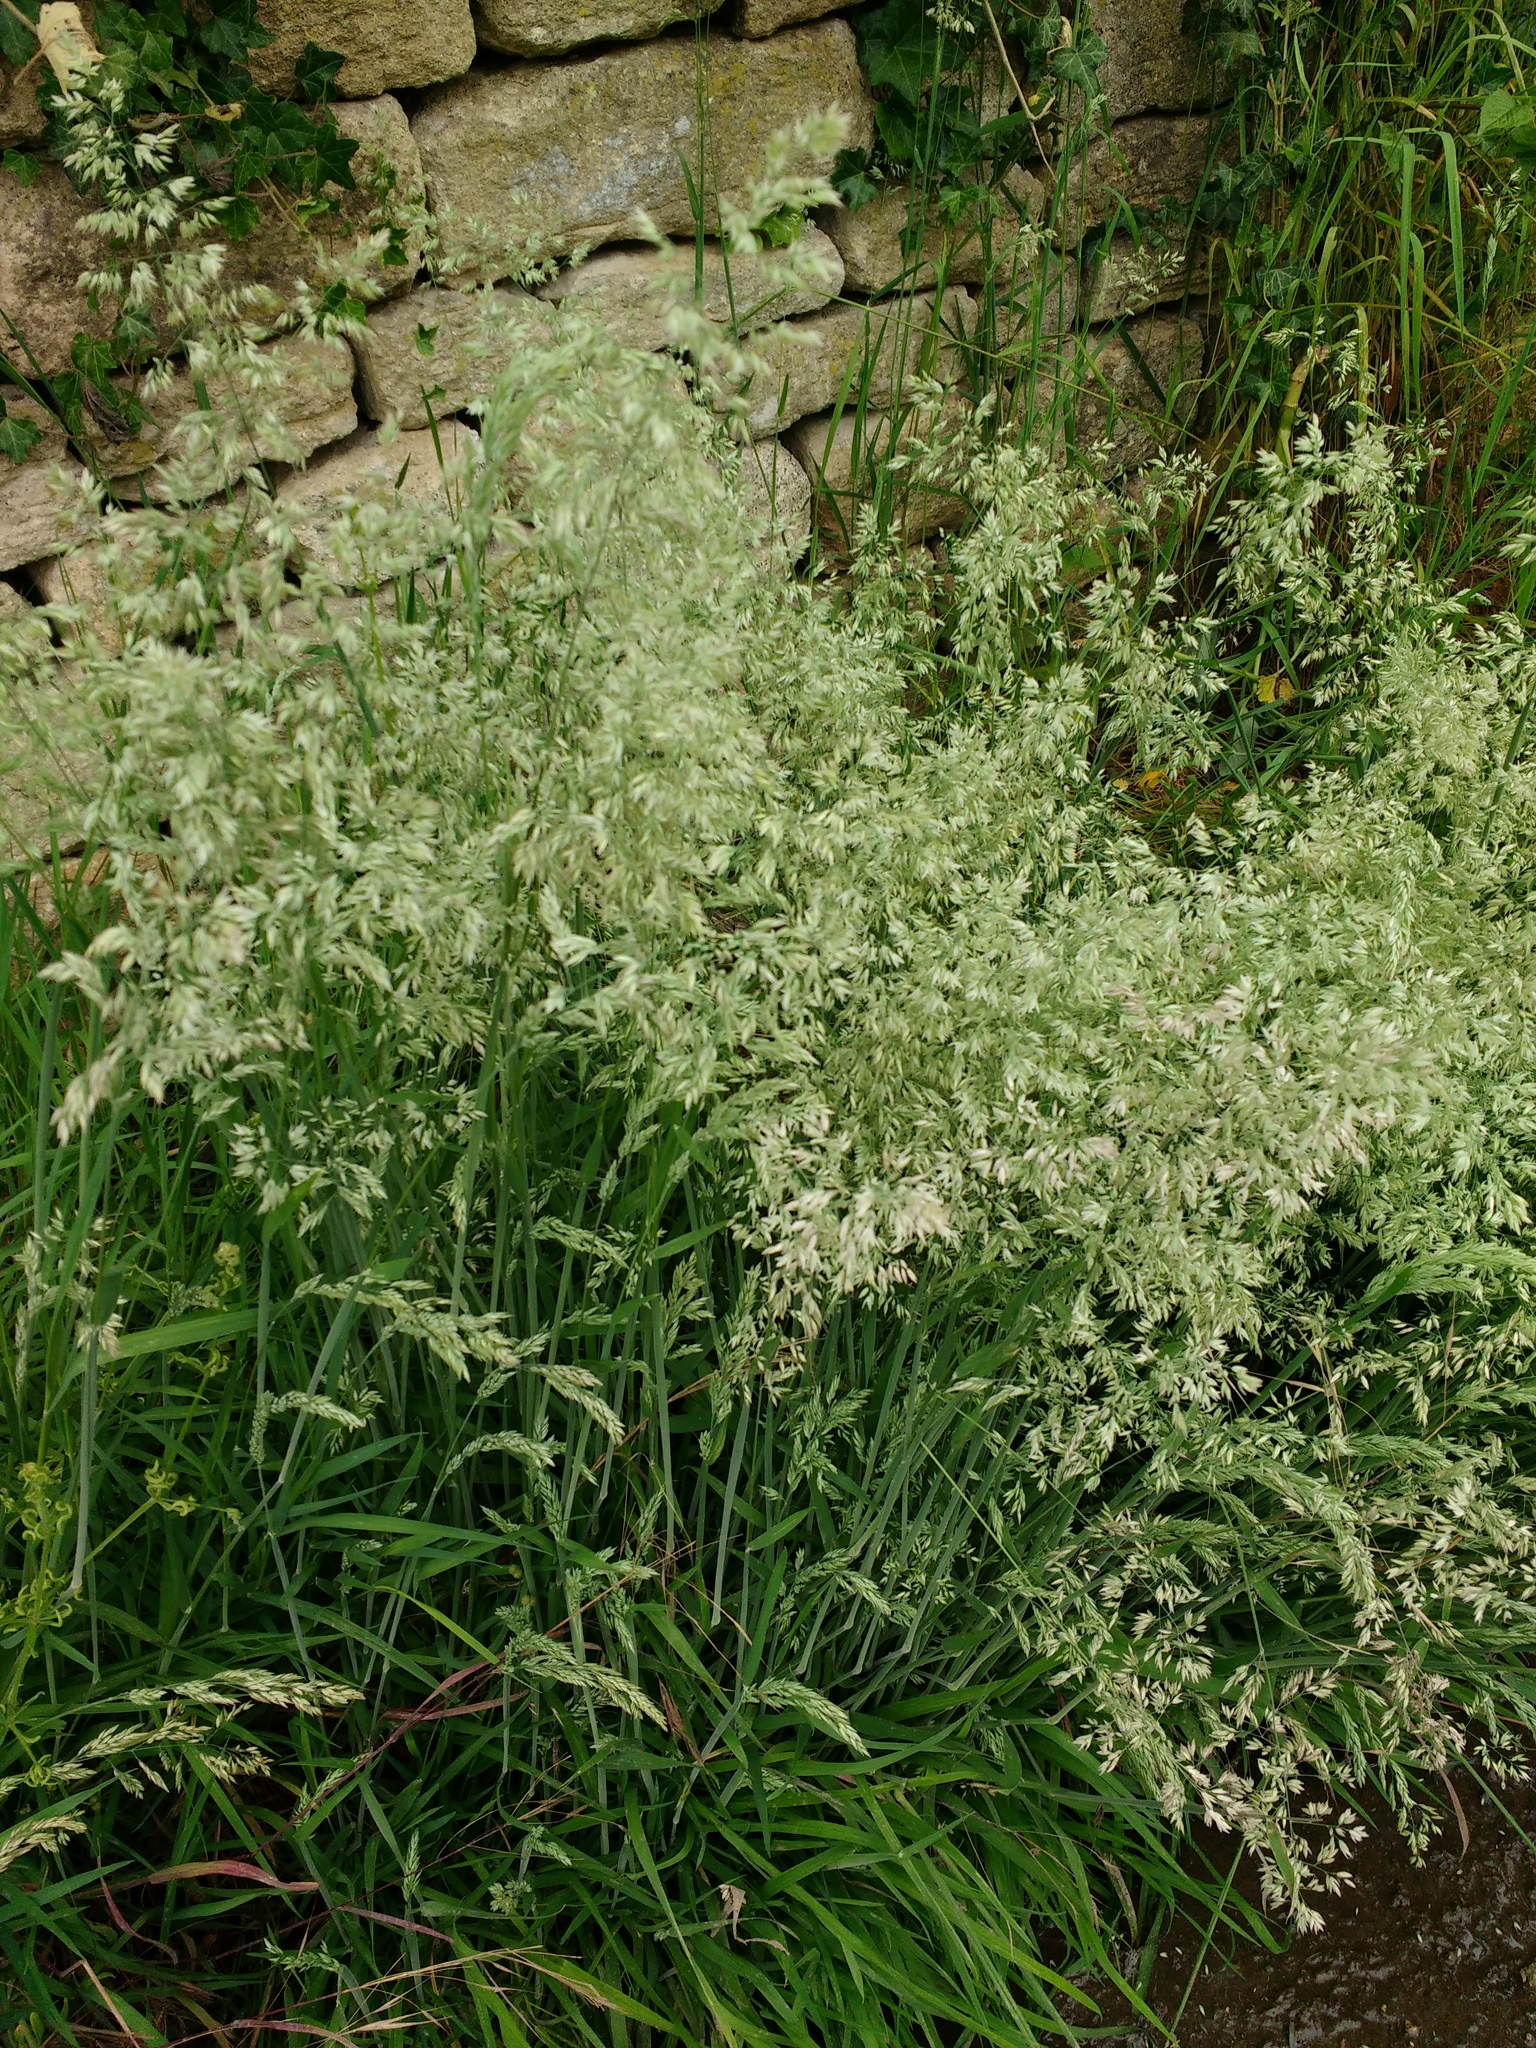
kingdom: Plantae
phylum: Tracheophyta
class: Liliopsida
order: Poales
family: Poaceae
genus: Holcus
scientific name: Holcus lanatus
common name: Yorkshire-fog
